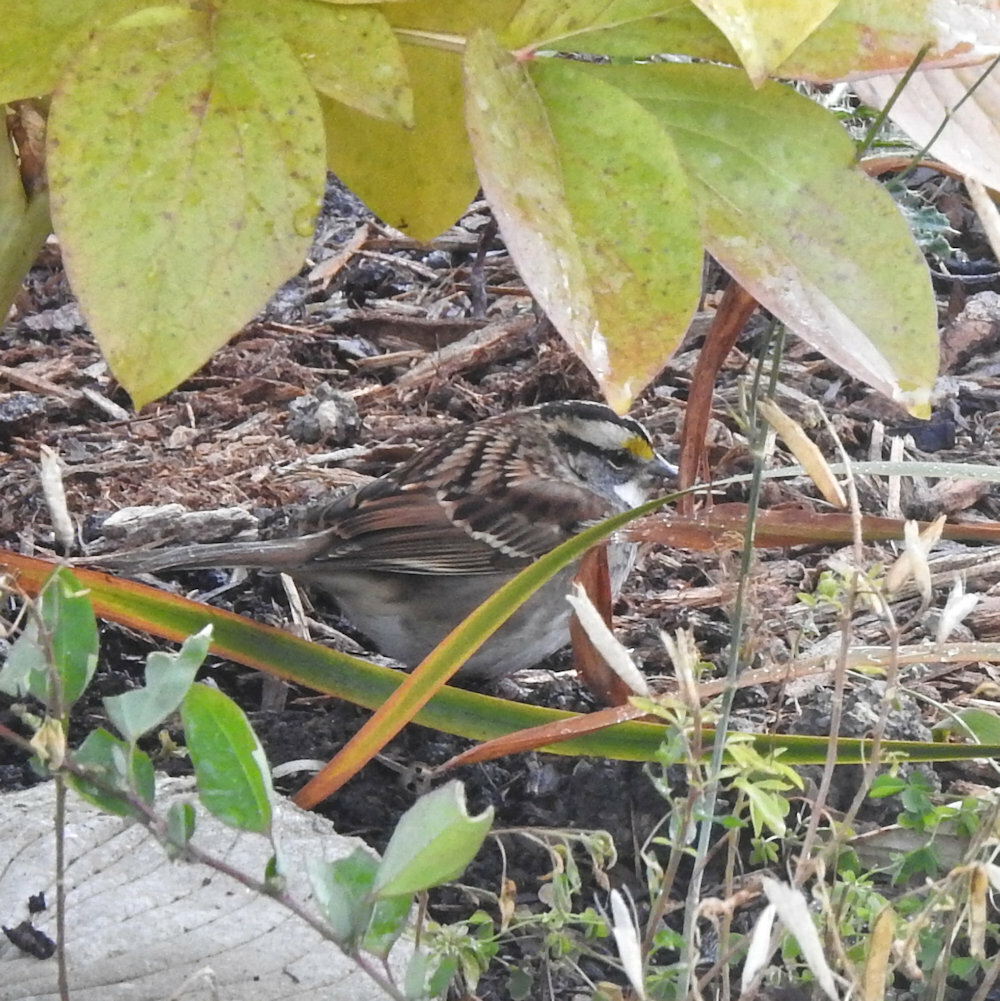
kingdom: Animalia
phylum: Chordata
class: Aves
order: Passeriformes
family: Passerellidae
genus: Zonotrichia
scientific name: Zonotrichia albicollis
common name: White-throated sparrow
